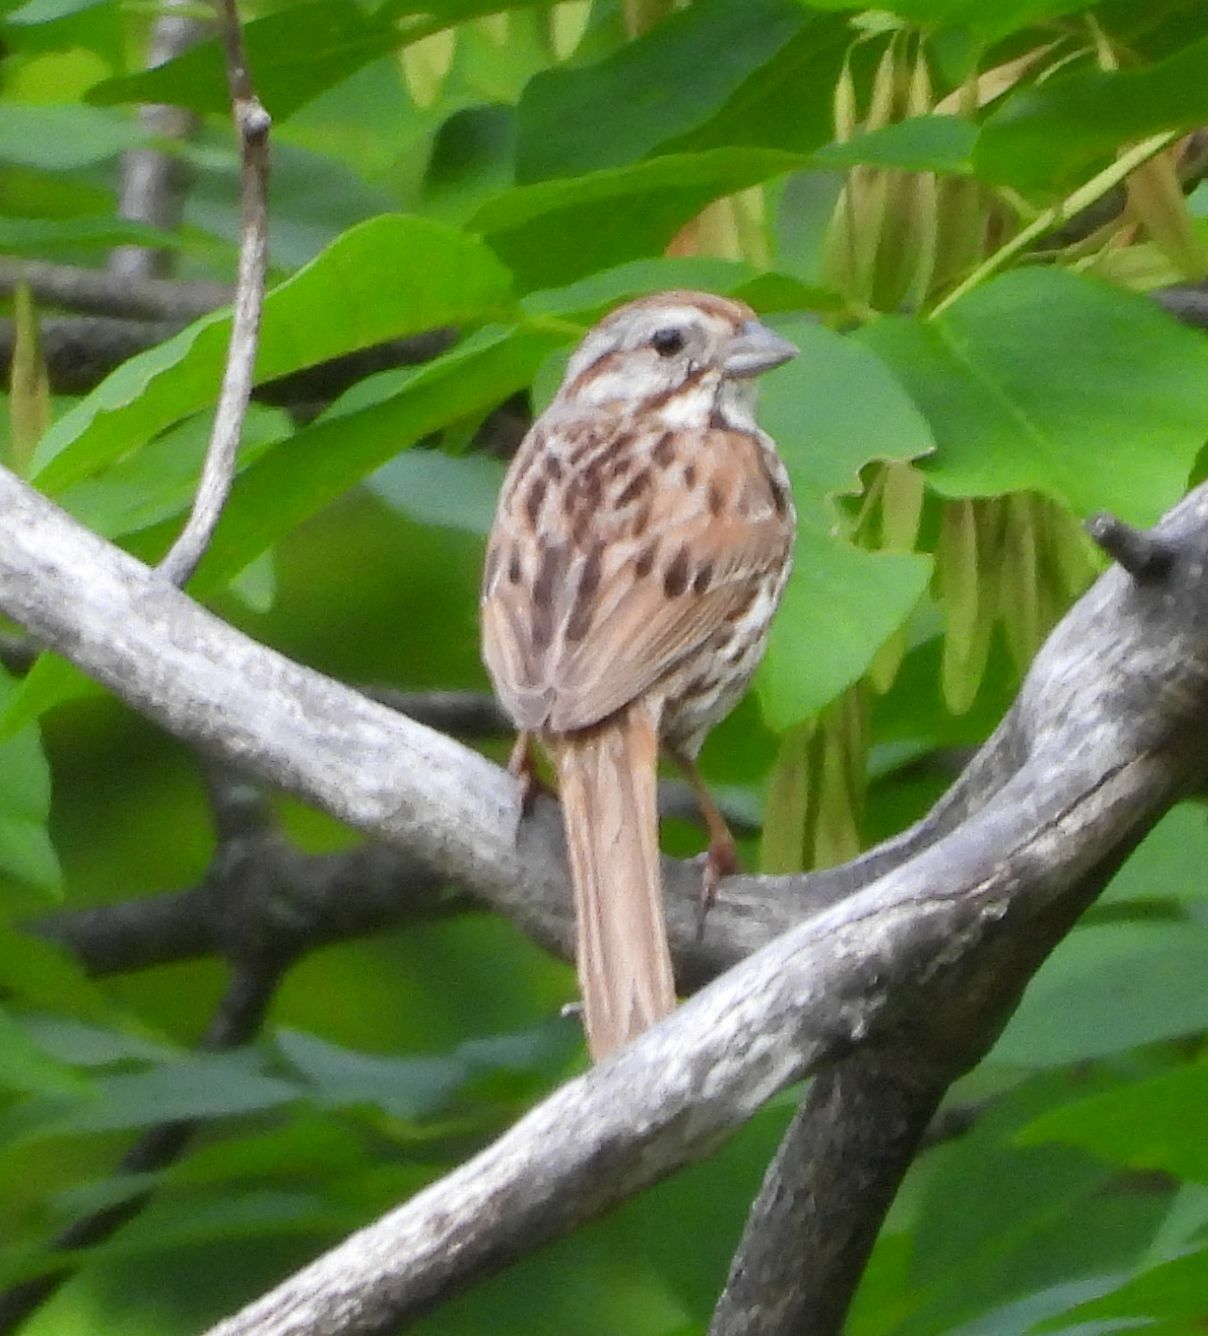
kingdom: Animalia
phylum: Chordata
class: Aves
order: Passeriformes
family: Passerellidae
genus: Melospiza
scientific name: Melospiza melodia
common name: Song sparrow
